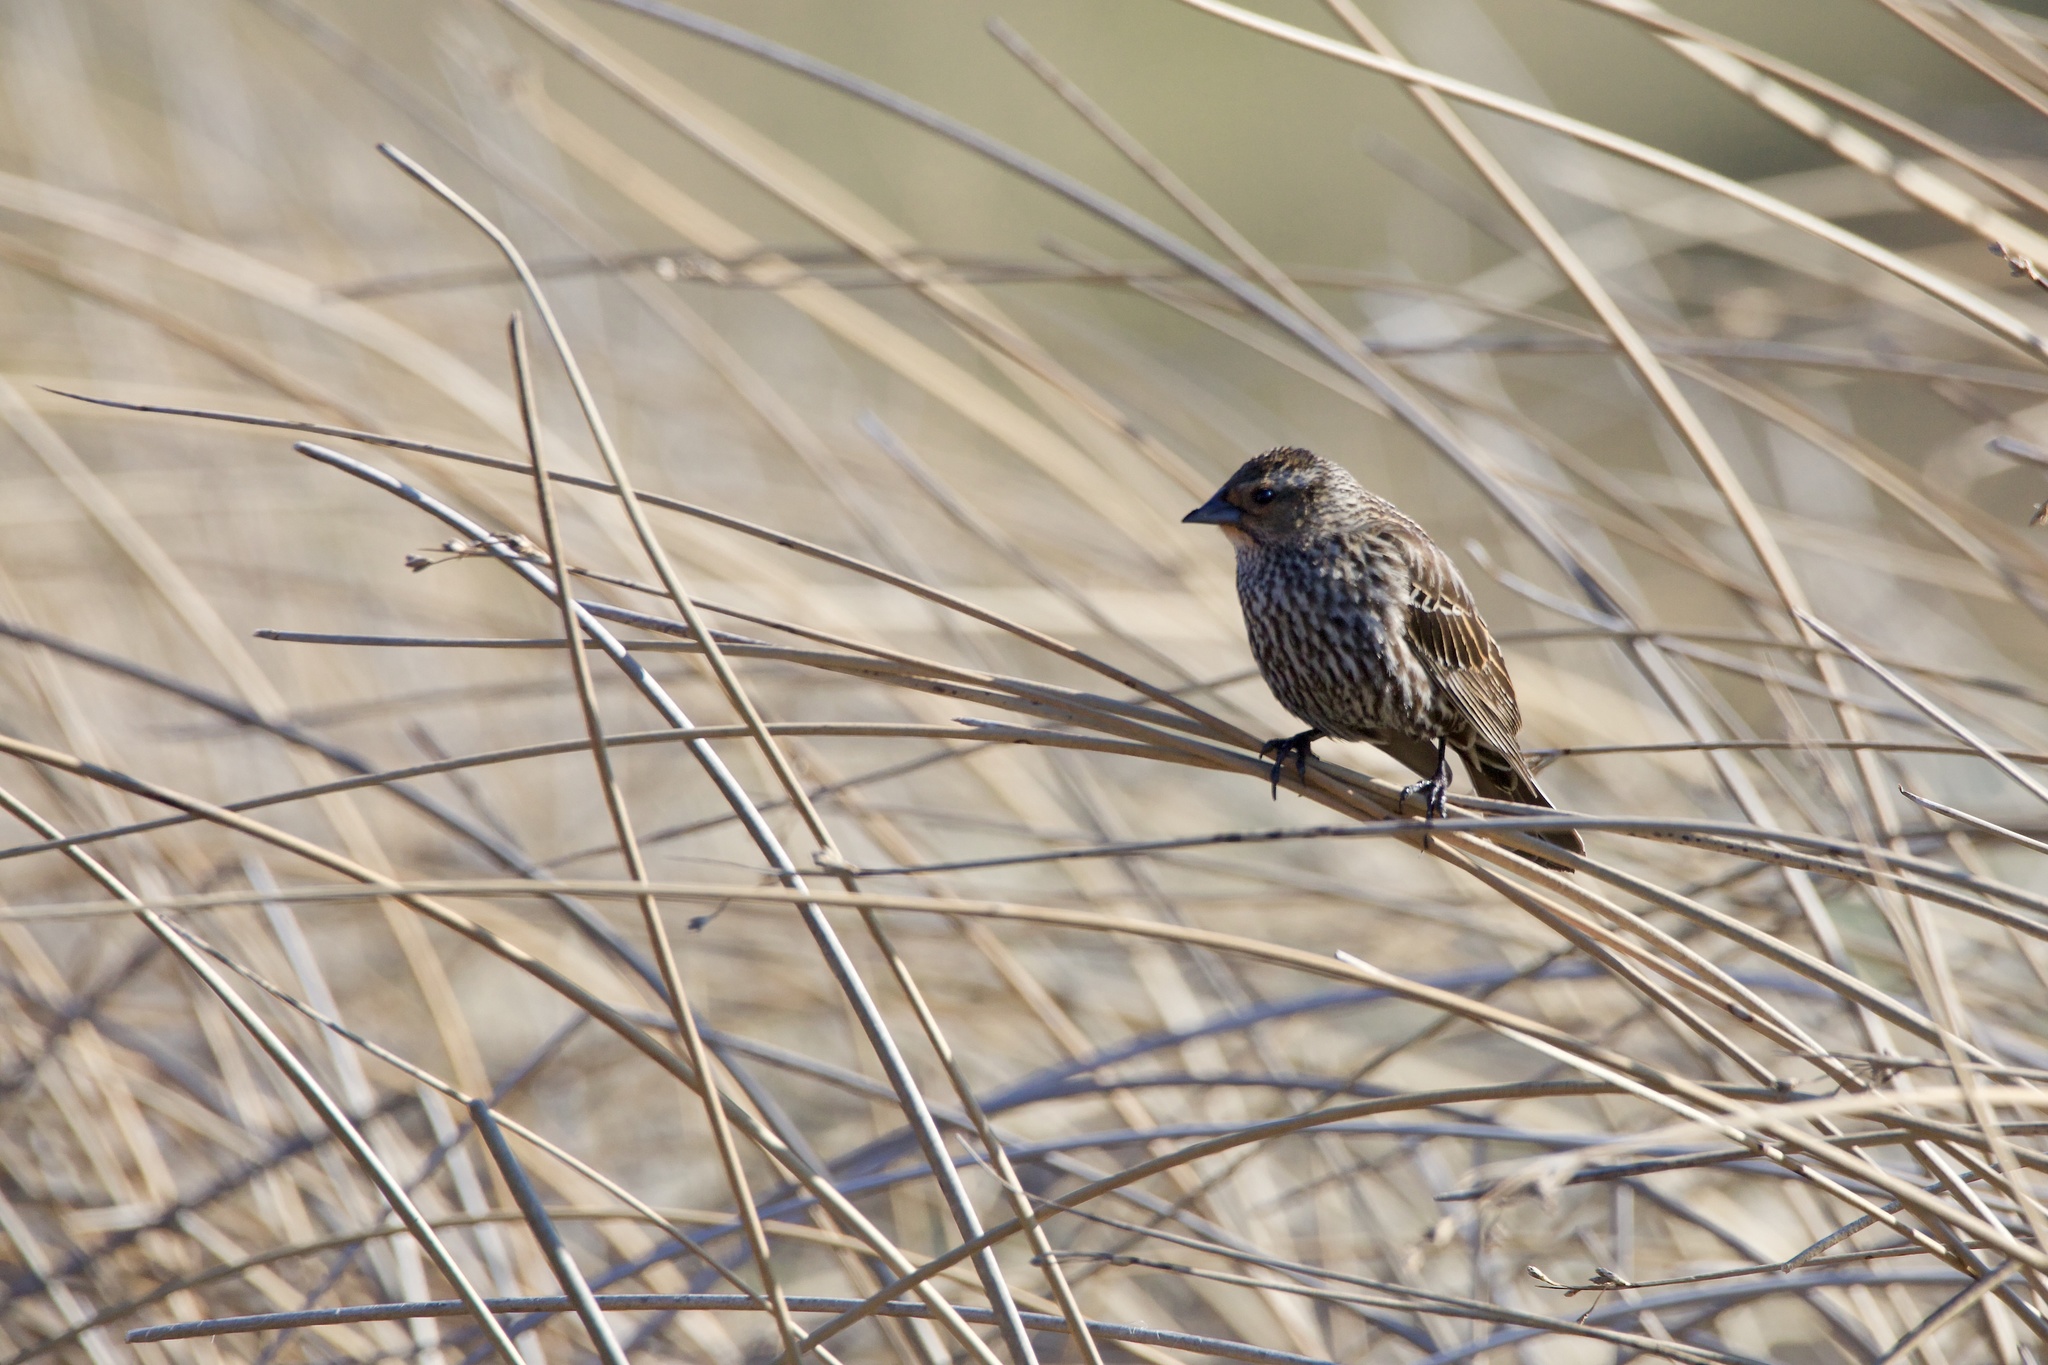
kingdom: Animalia
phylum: Chordata
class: Aves
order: Passeriformes
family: Icteridae
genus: Agelaius
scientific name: Agelaius phoeniceus
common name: Red-winged blackbird
